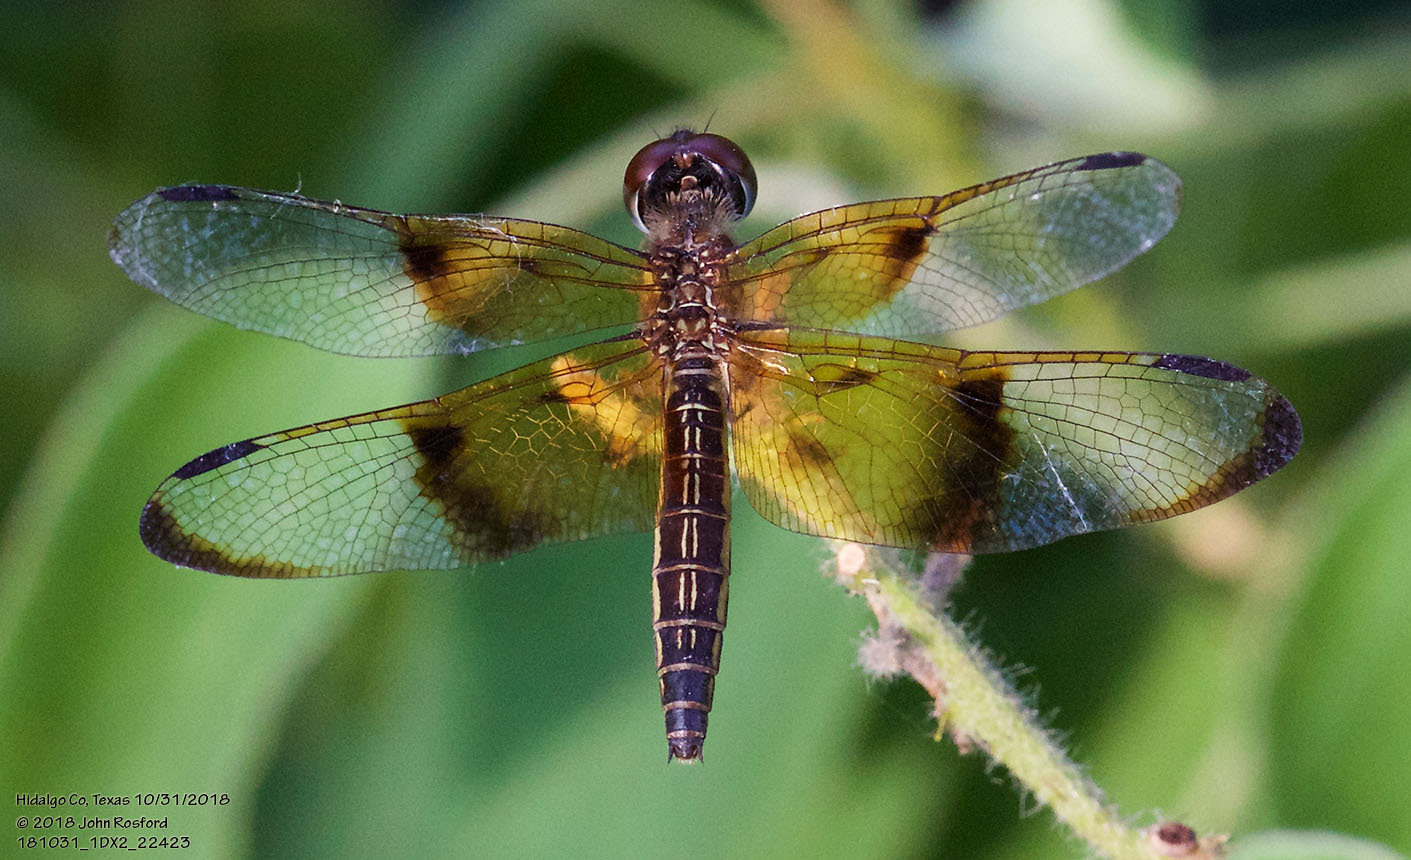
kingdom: Animalia
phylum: Arthropoda
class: Insecta
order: Odonata
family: Libellulidae
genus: Perithemis
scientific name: Perithemis domitia
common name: Slough amberwing
